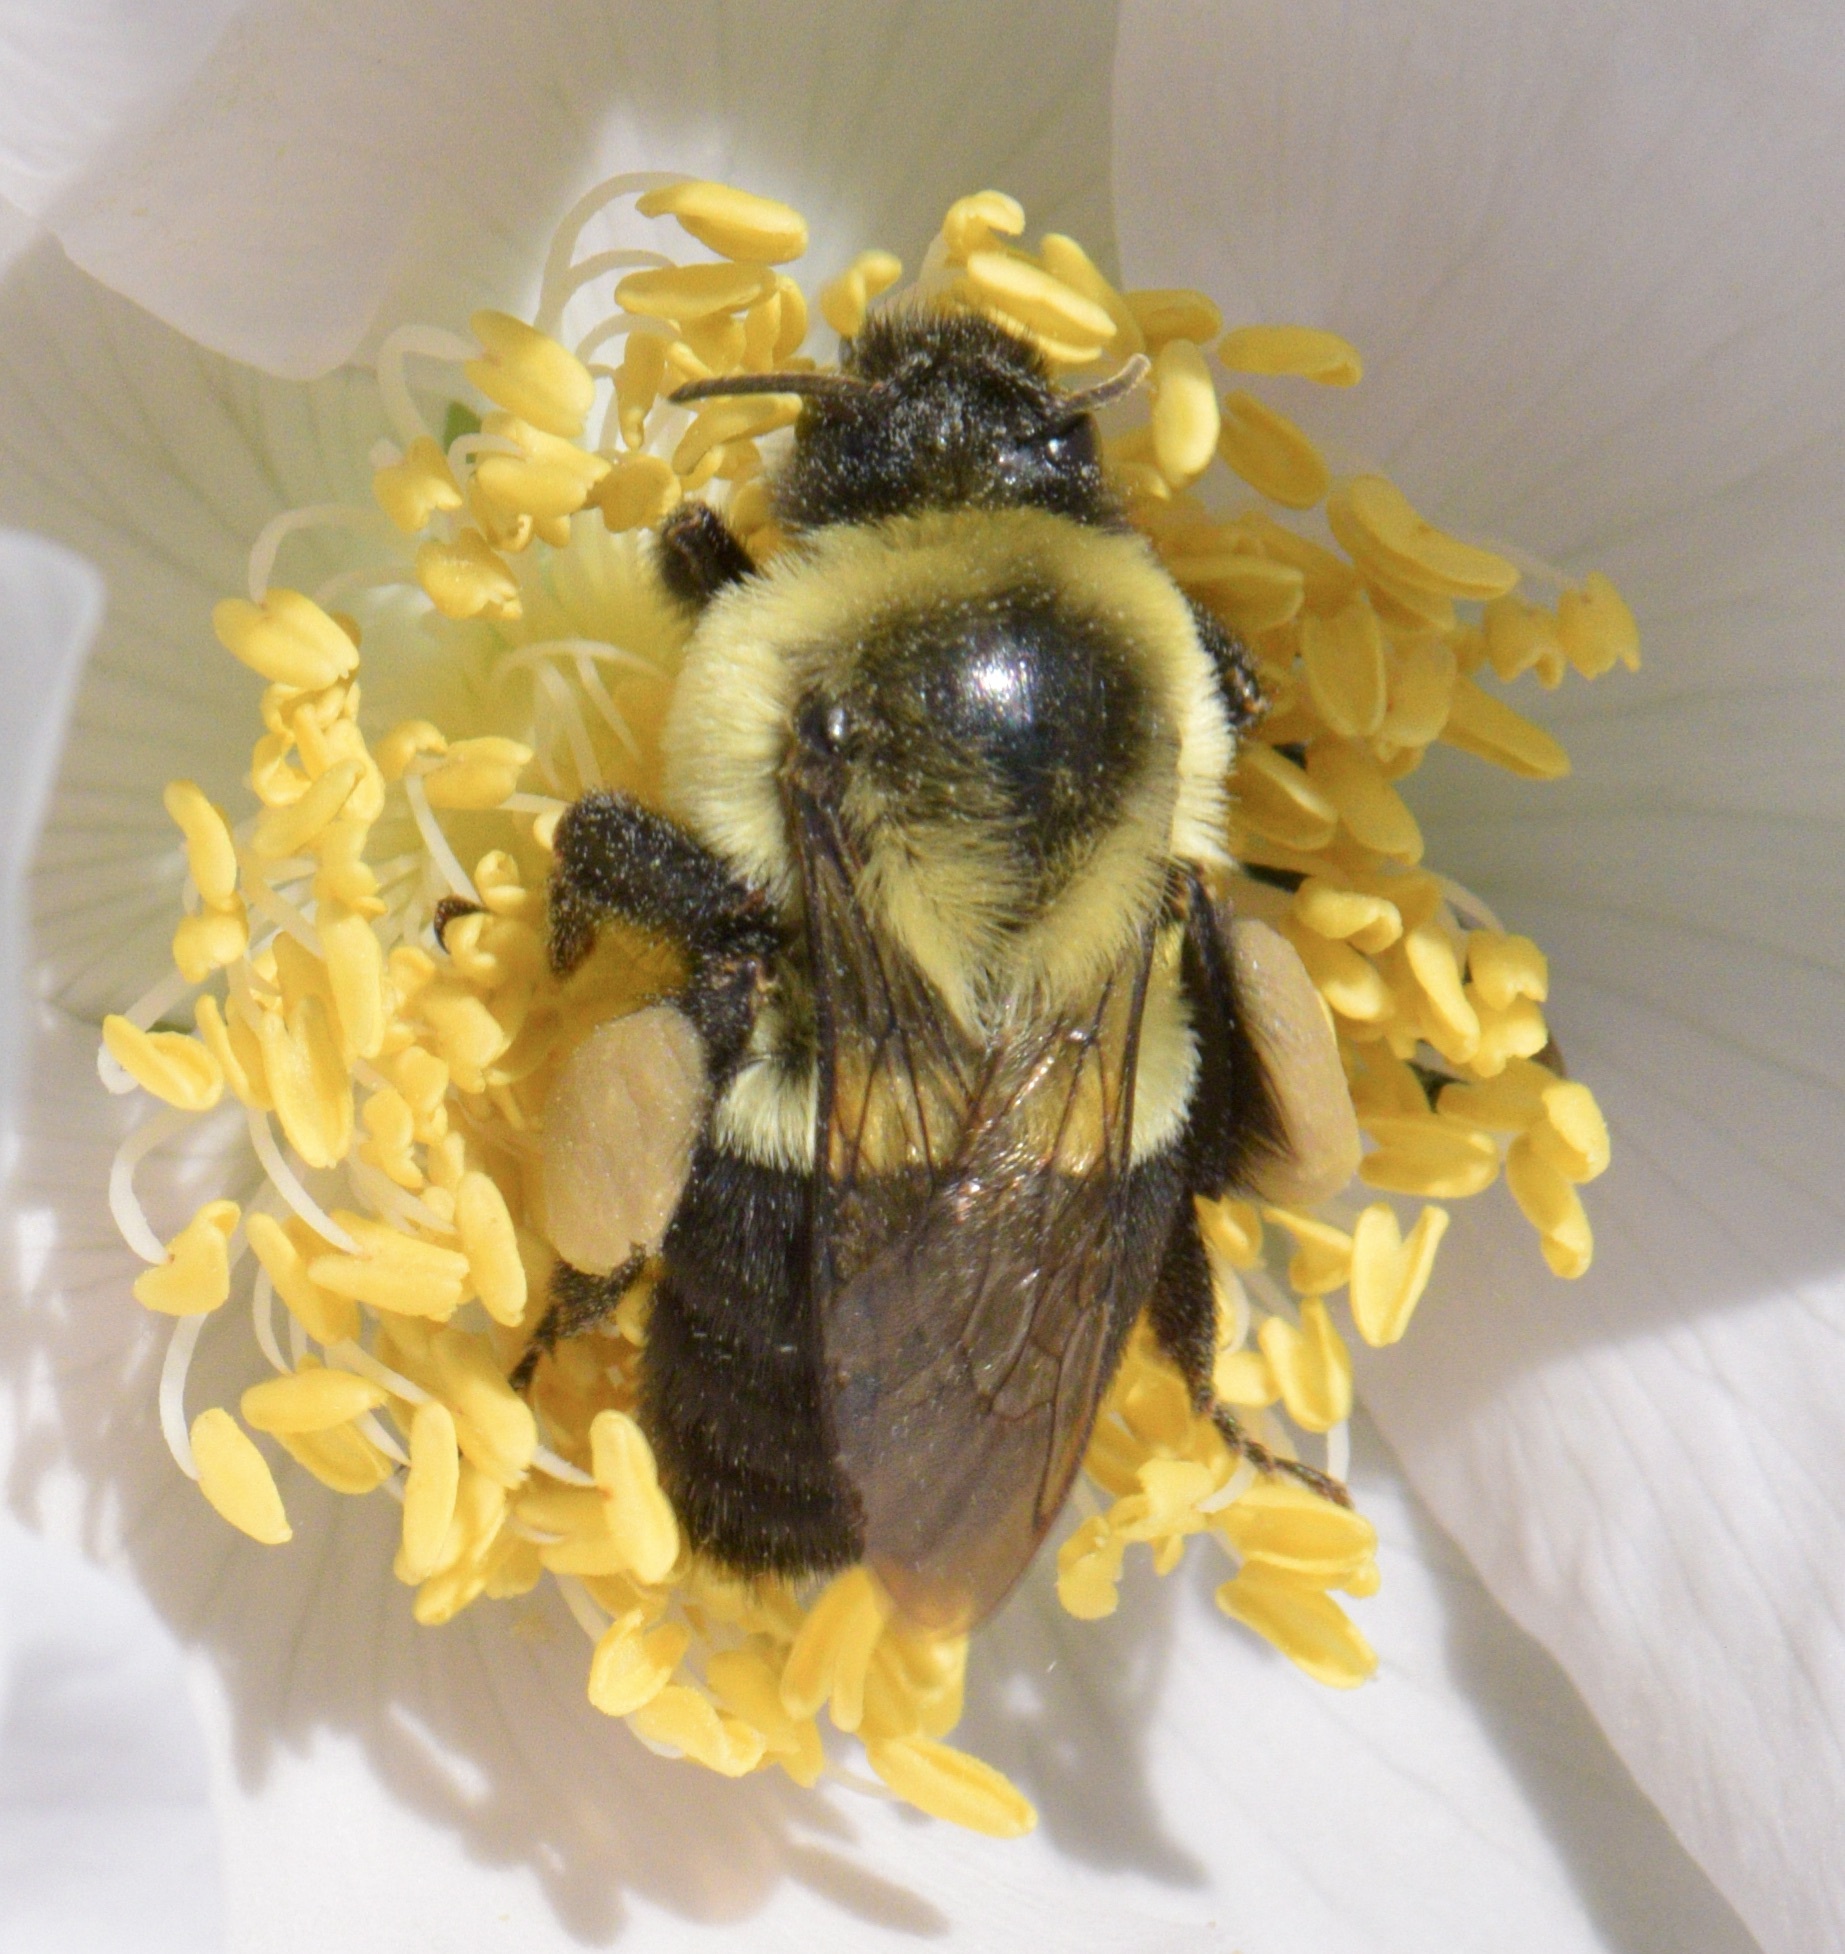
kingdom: Animalia
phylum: Arthropoda
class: Insecta
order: Hymenoptera
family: Apidae
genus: Bombus
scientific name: Bombus impatiens
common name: Common eastern bumble bee
